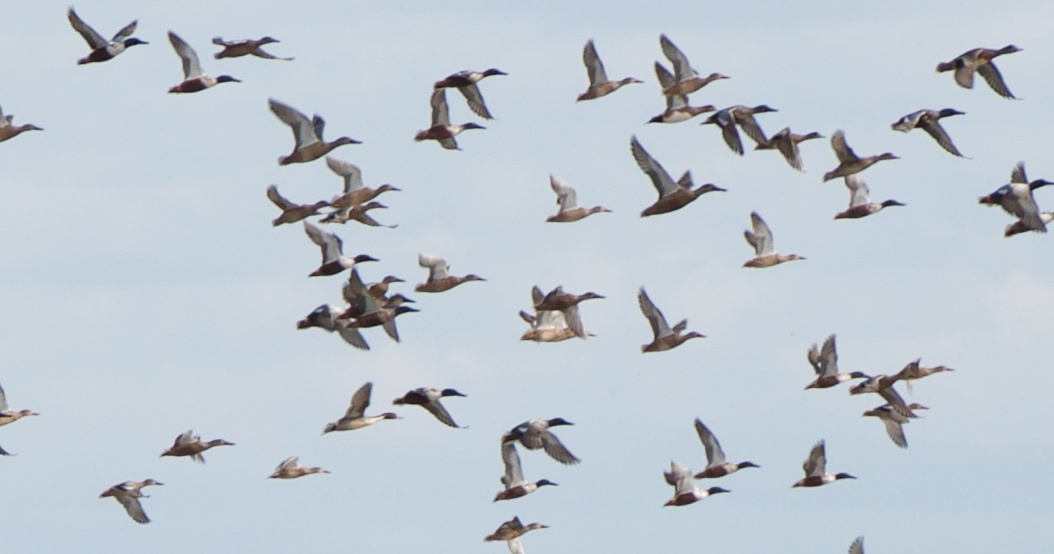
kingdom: Animalia
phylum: Chordata
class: Aves
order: Anseriformes
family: Anatidae
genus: Spatula
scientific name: Spatula clypeata
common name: Northern shoveler
